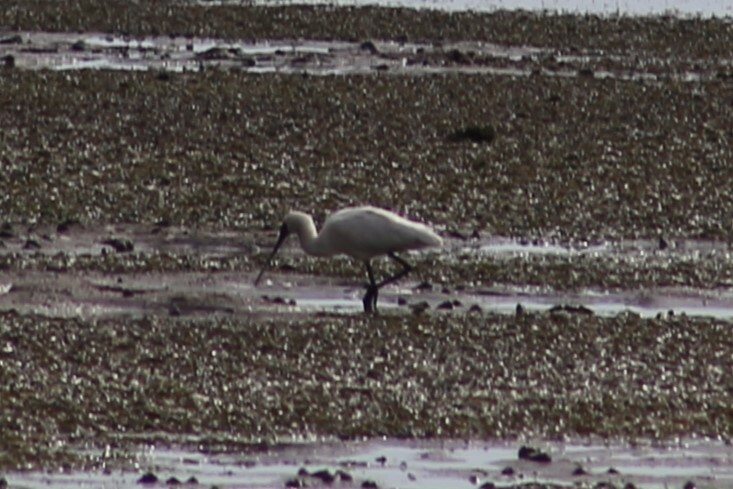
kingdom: Animalia
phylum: Chordata
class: Aves
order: Pelecaniformes
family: Threskiornithidae
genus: Platalea
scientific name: Platalea regia
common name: Royal spoonbill
